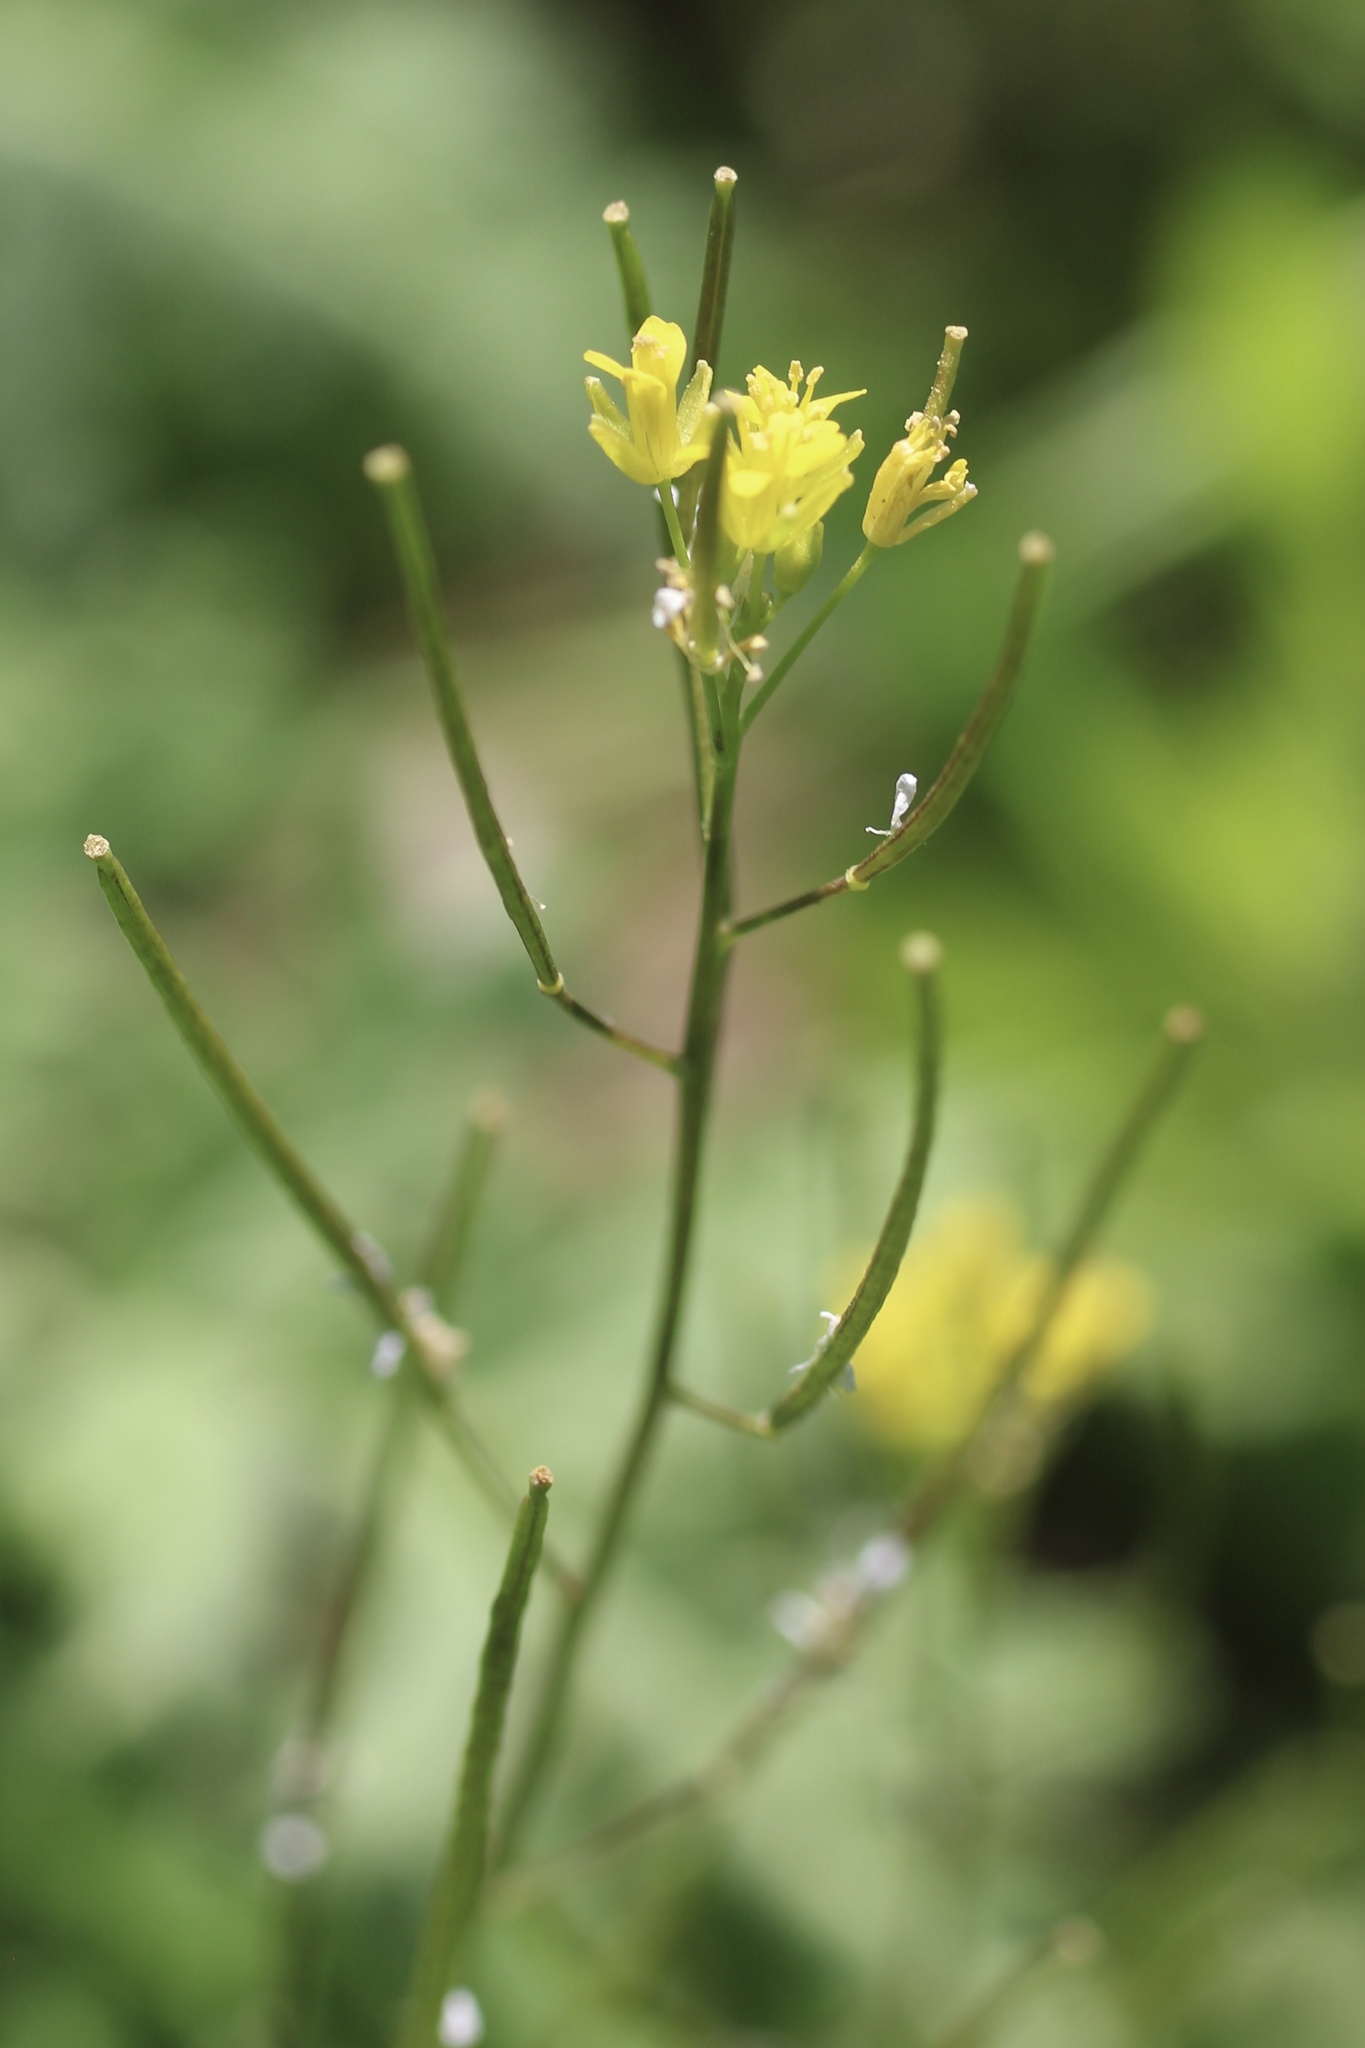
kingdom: Plantae
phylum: Tracheophyta
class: Magnoliopsida
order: Brassicales
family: Brassicaceae
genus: Sisymbrium
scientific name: Sisymbrium irio
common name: London rocket
